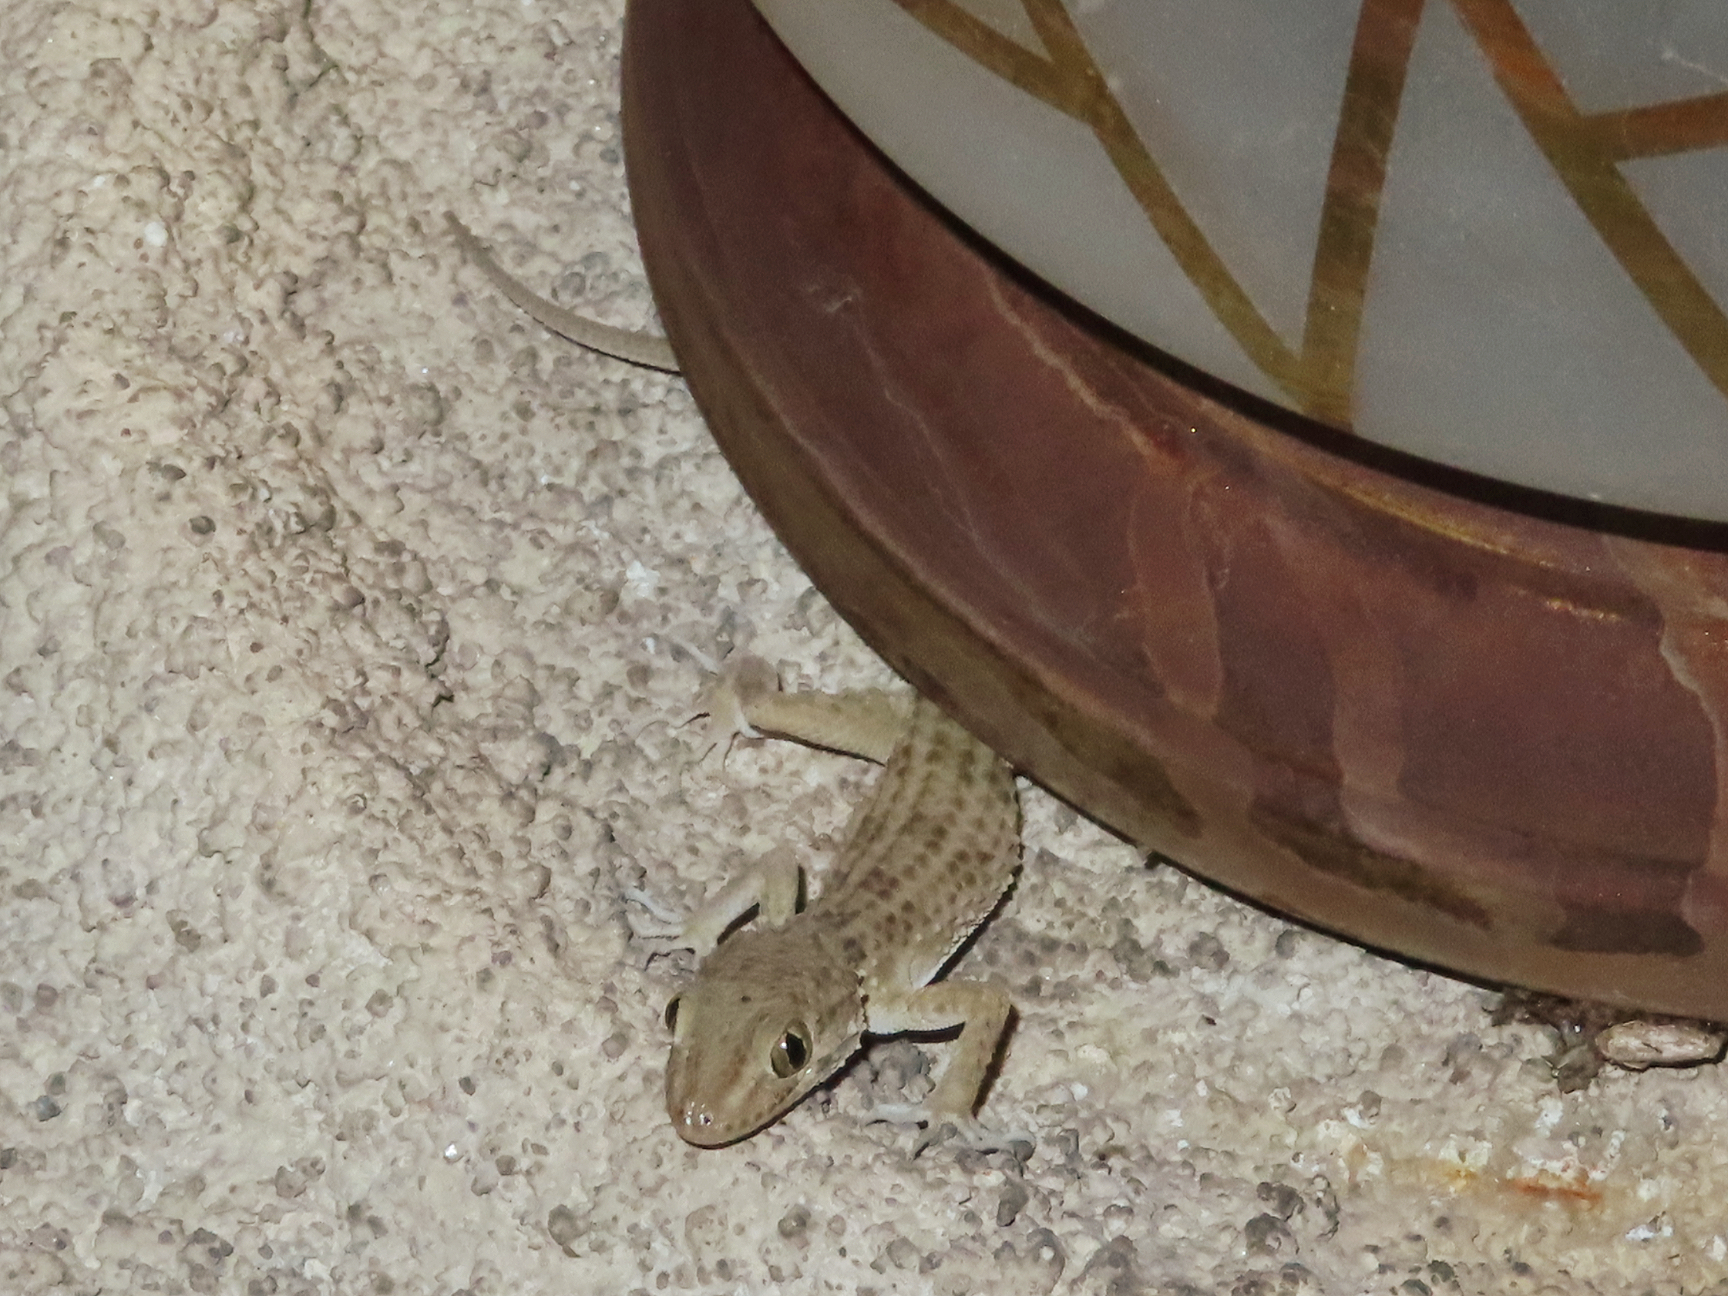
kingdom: Animalia
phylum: Chordata
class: Squamata
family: Gekkonidae
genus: Tenuidactylus
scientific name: Tenuidactylus caspius
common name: Caspian bent-toed gecko
